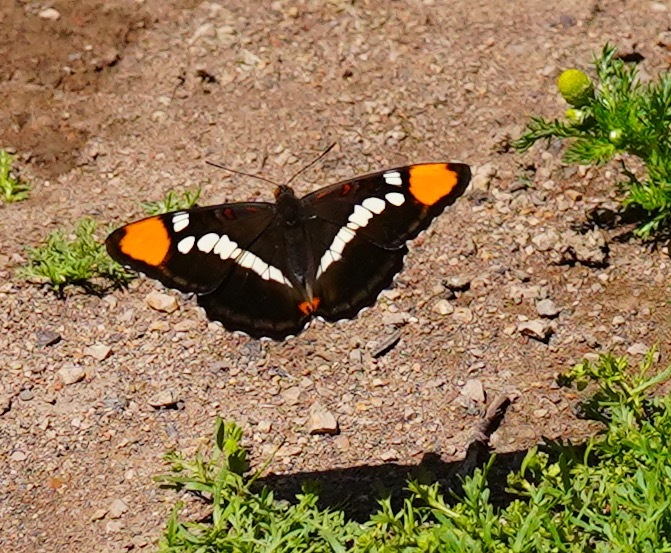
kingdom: Animalia
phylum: Arthropoda
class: Insecta
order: Lepidoptera
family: Nymphalidae
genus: Limenitis
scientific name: Limenitis bredowii
